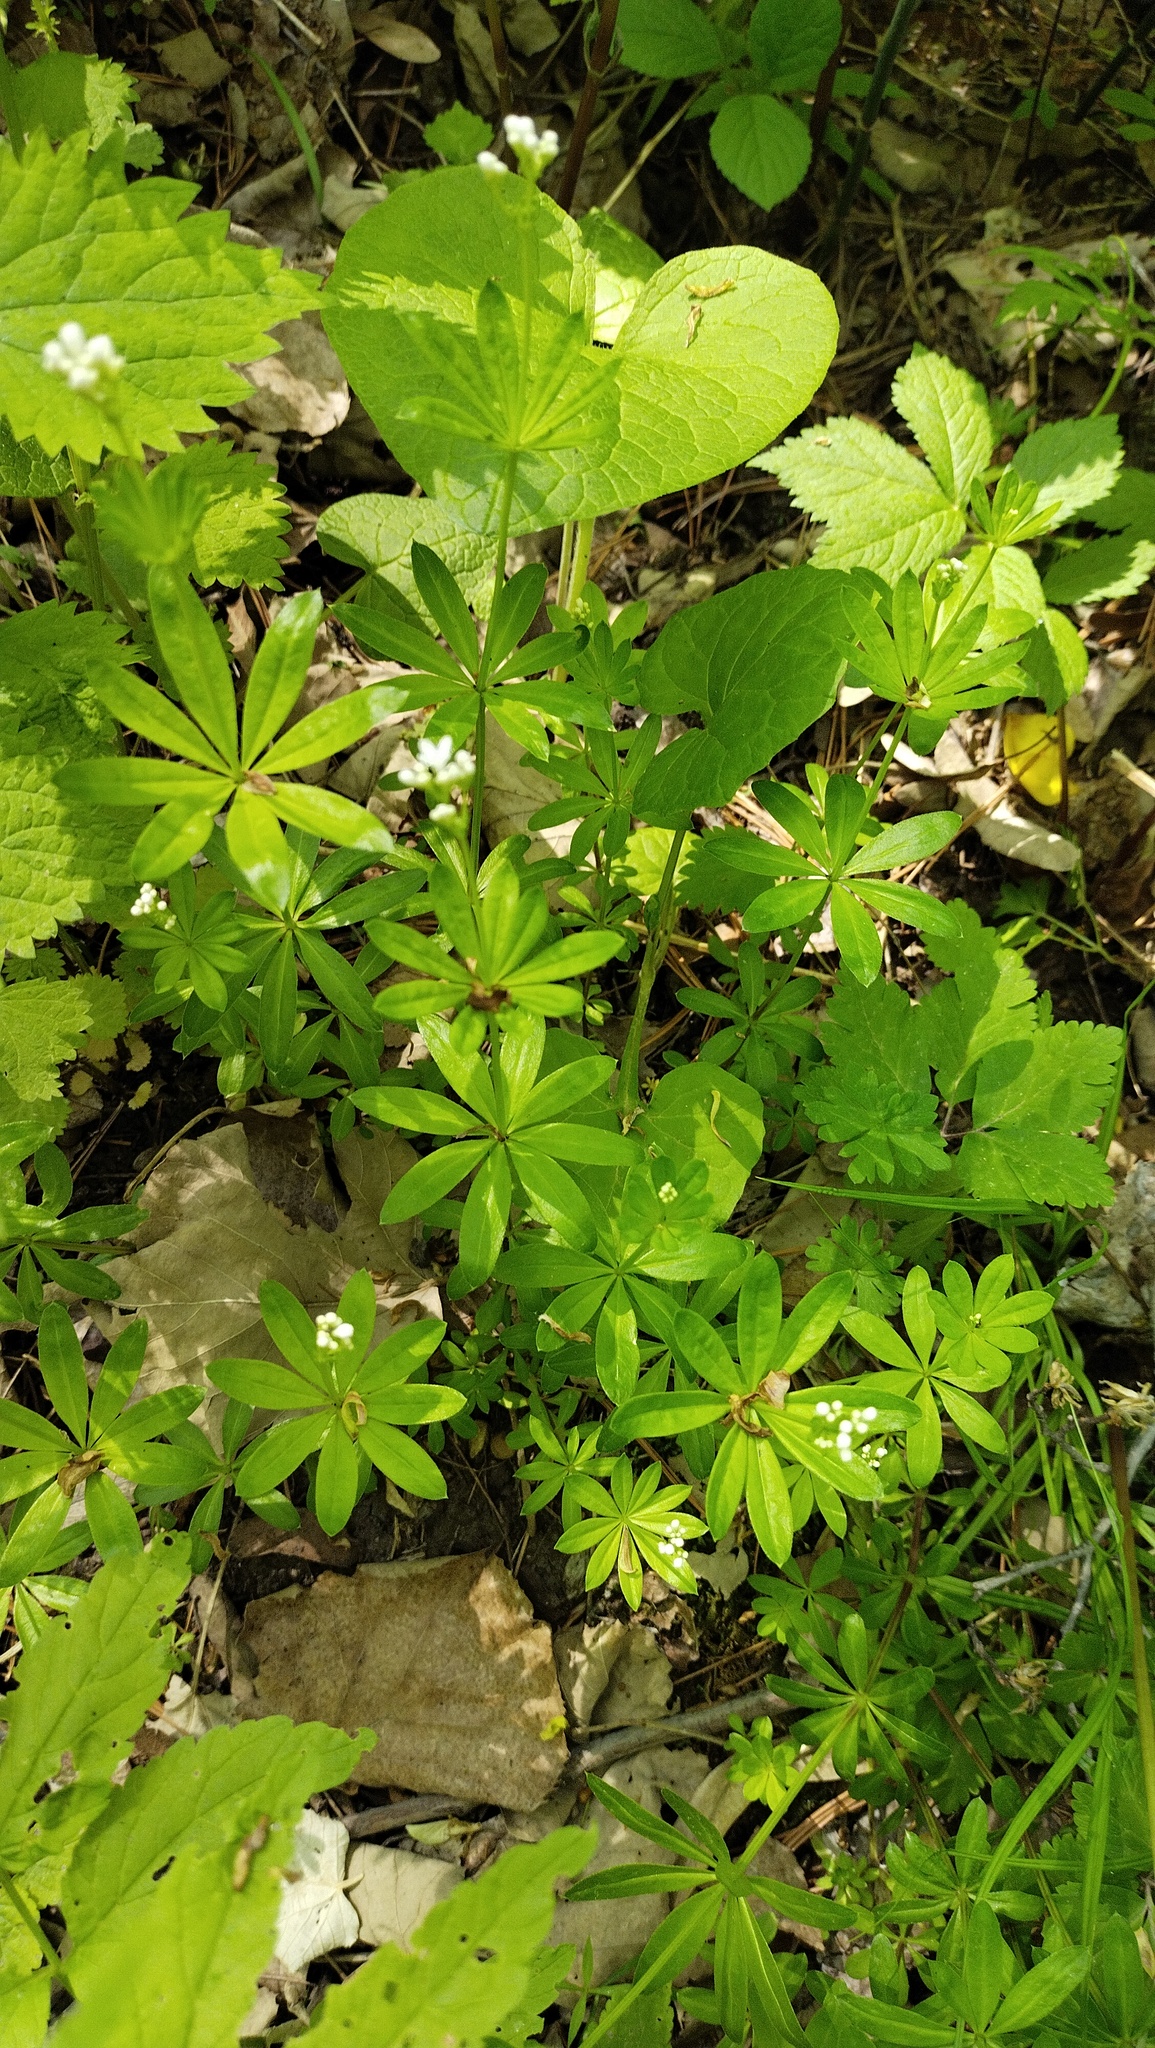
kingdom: Plantae
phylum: Tracheophyta
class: Magnoliopsida
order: Gentianales
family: Rubiaceae
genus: Galium
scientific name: Galium odoratum
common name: Sweet woodruff
